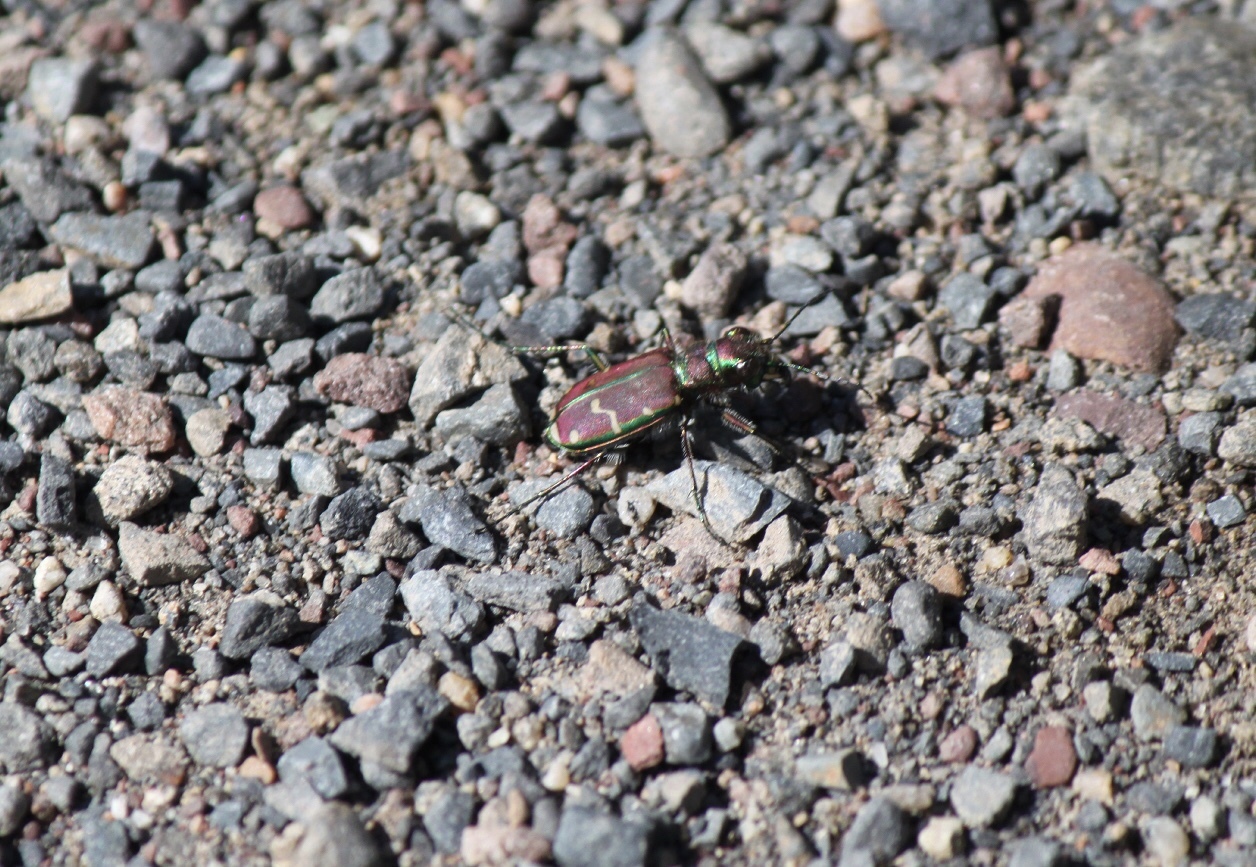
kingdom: Animalia
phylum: Arthropoda
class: Insecta
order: Coleoptera
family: Carabidae
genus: Cicindela
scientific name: Cicindela limbalis
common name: Common claybank tiger beetle
